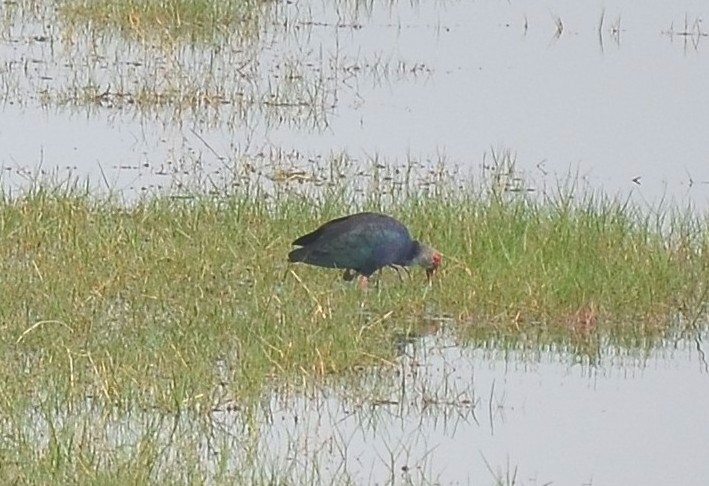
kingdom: Animalia
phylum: Chordata
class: Aves
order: Gruiformes
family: Rallidae
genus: Porphyrio
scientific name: Porphyrio porphyrio
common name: Purple swamphen
